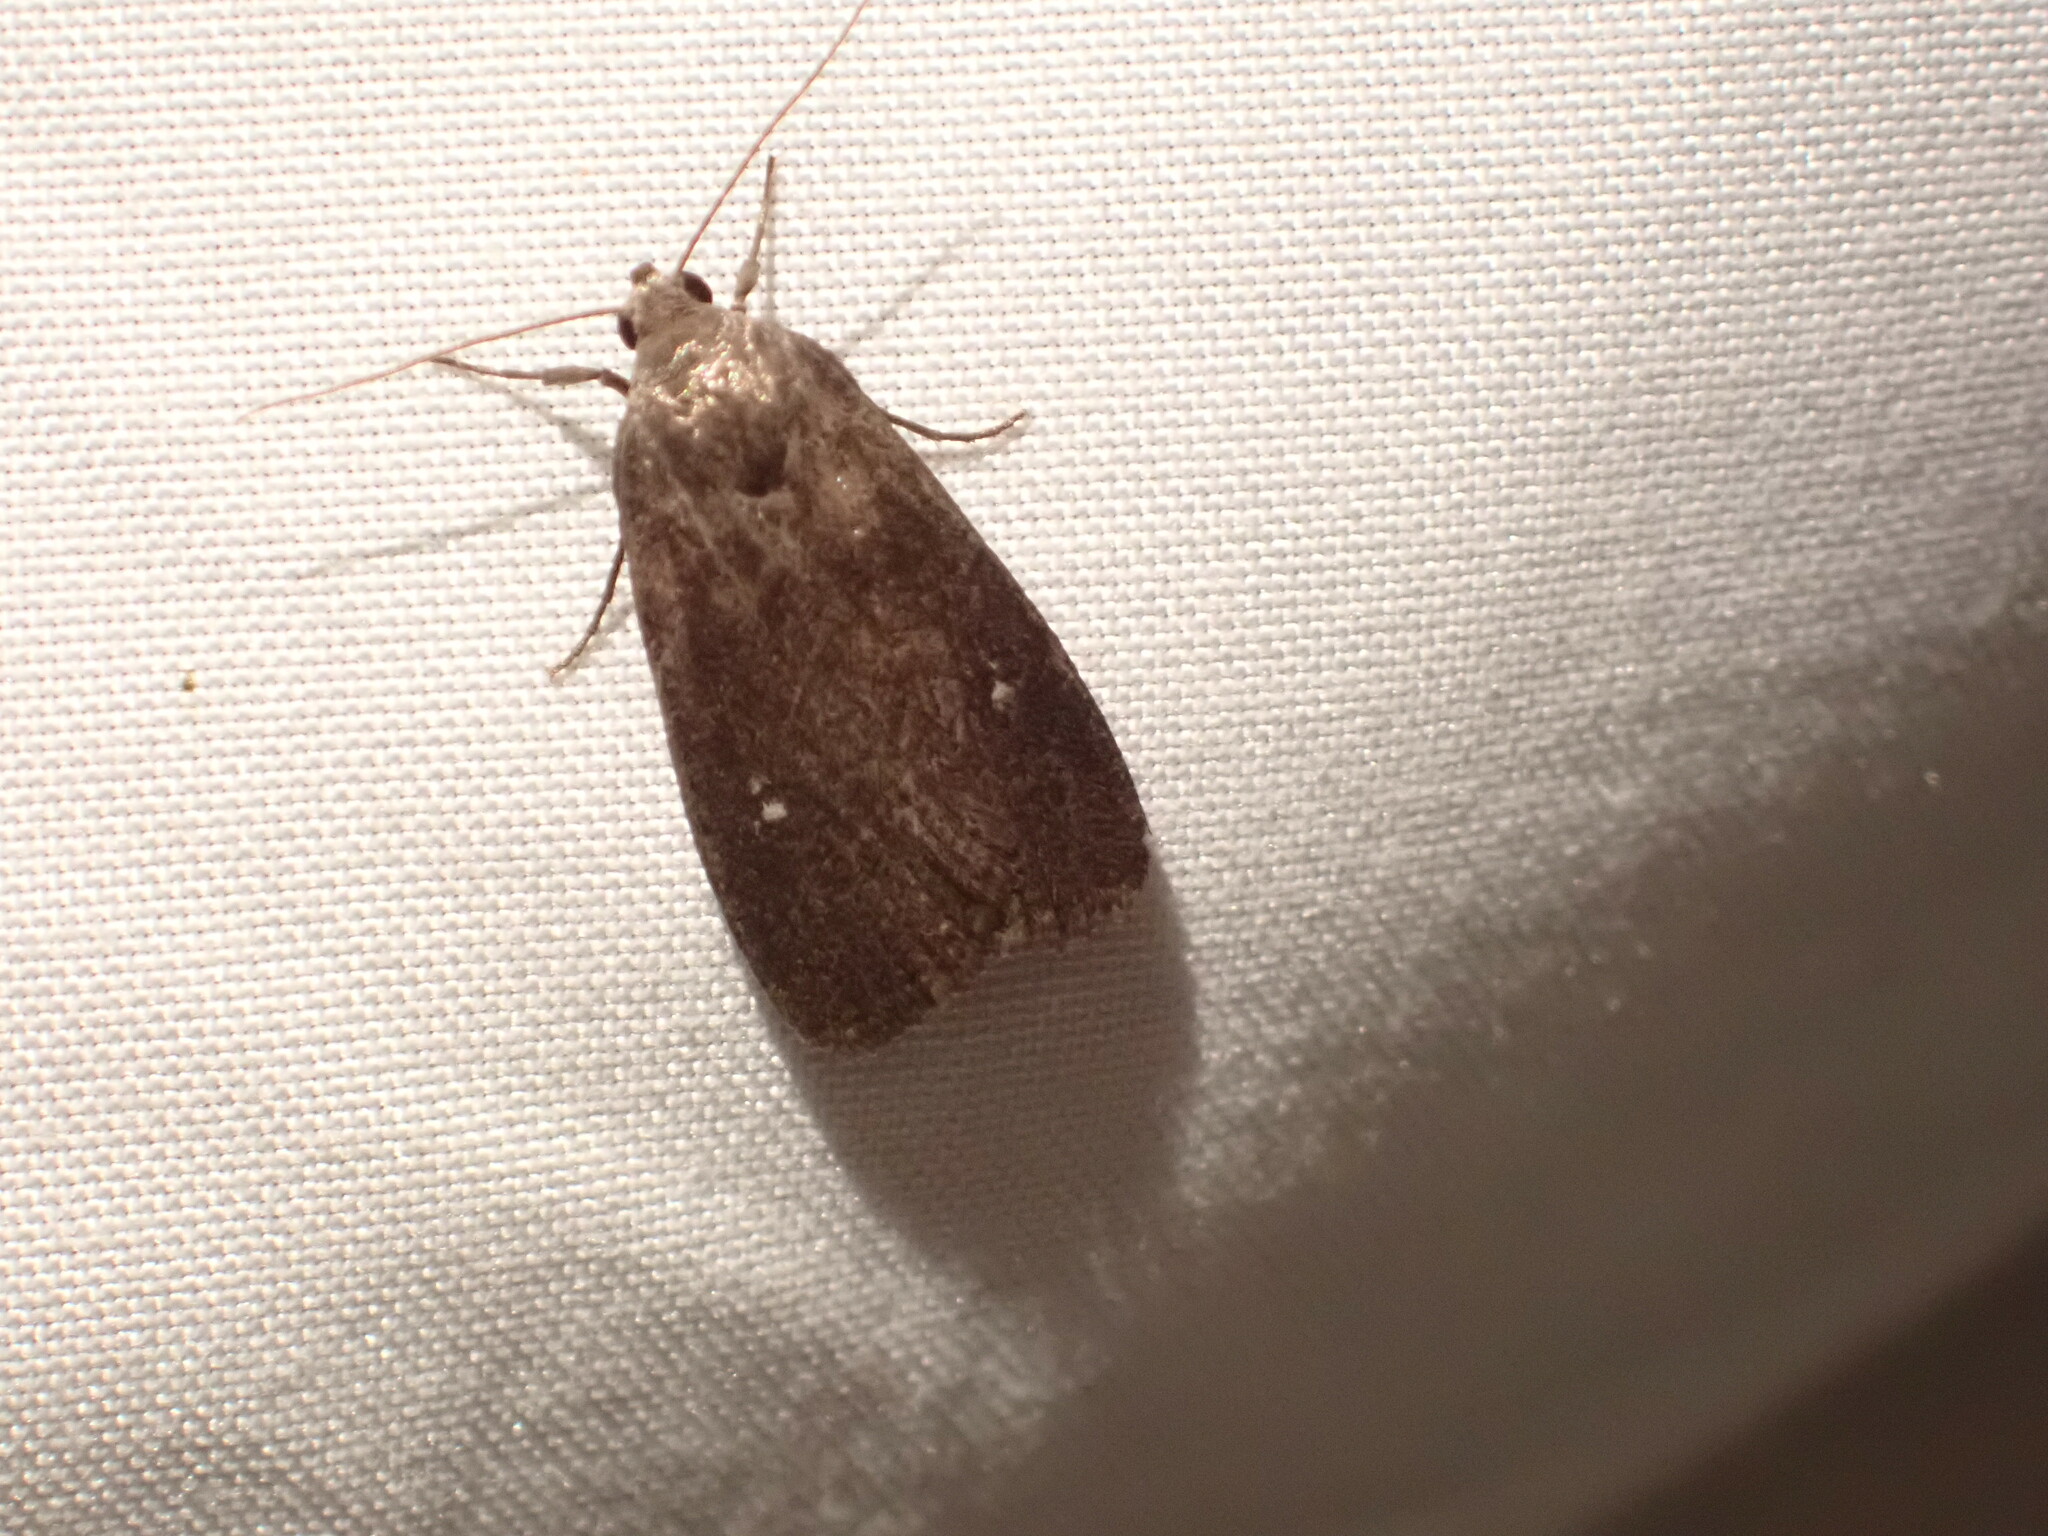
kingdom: Animalia
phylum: Arthropoda
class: Insecta
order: Lepidoptera
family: Noctuidae
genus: Proxenus
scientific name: Proxenus miranda
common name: Miranda moth
